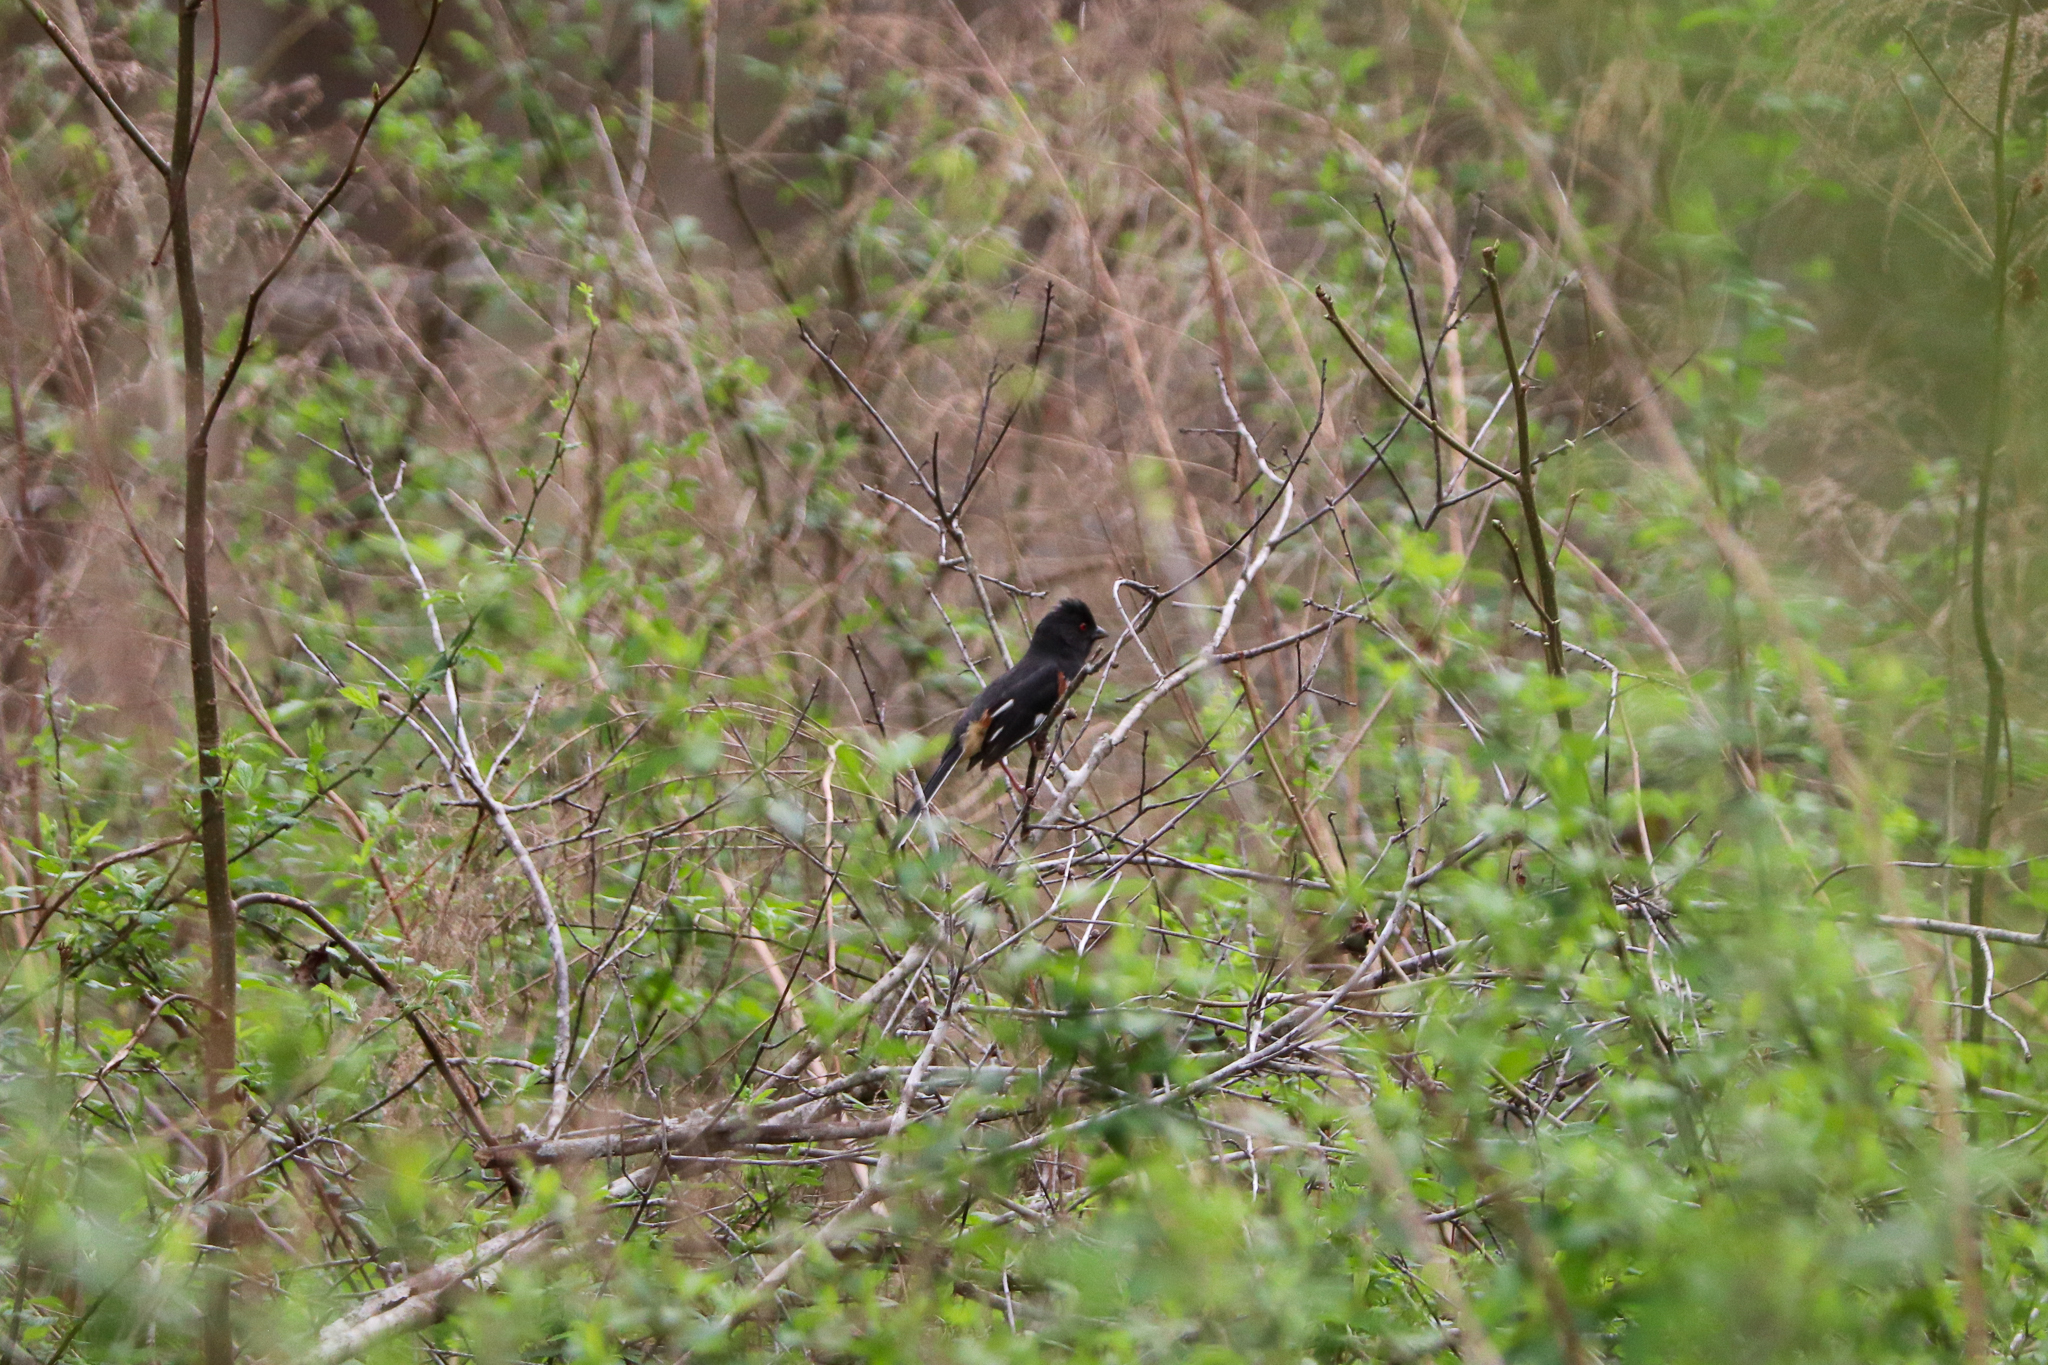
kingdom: Animalia
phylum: Chordata
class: Aves
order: Passeriformes
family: Passerellidae
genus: Pipilo
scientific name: Pipilo erythrophthalmus
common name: Eastern towhee
